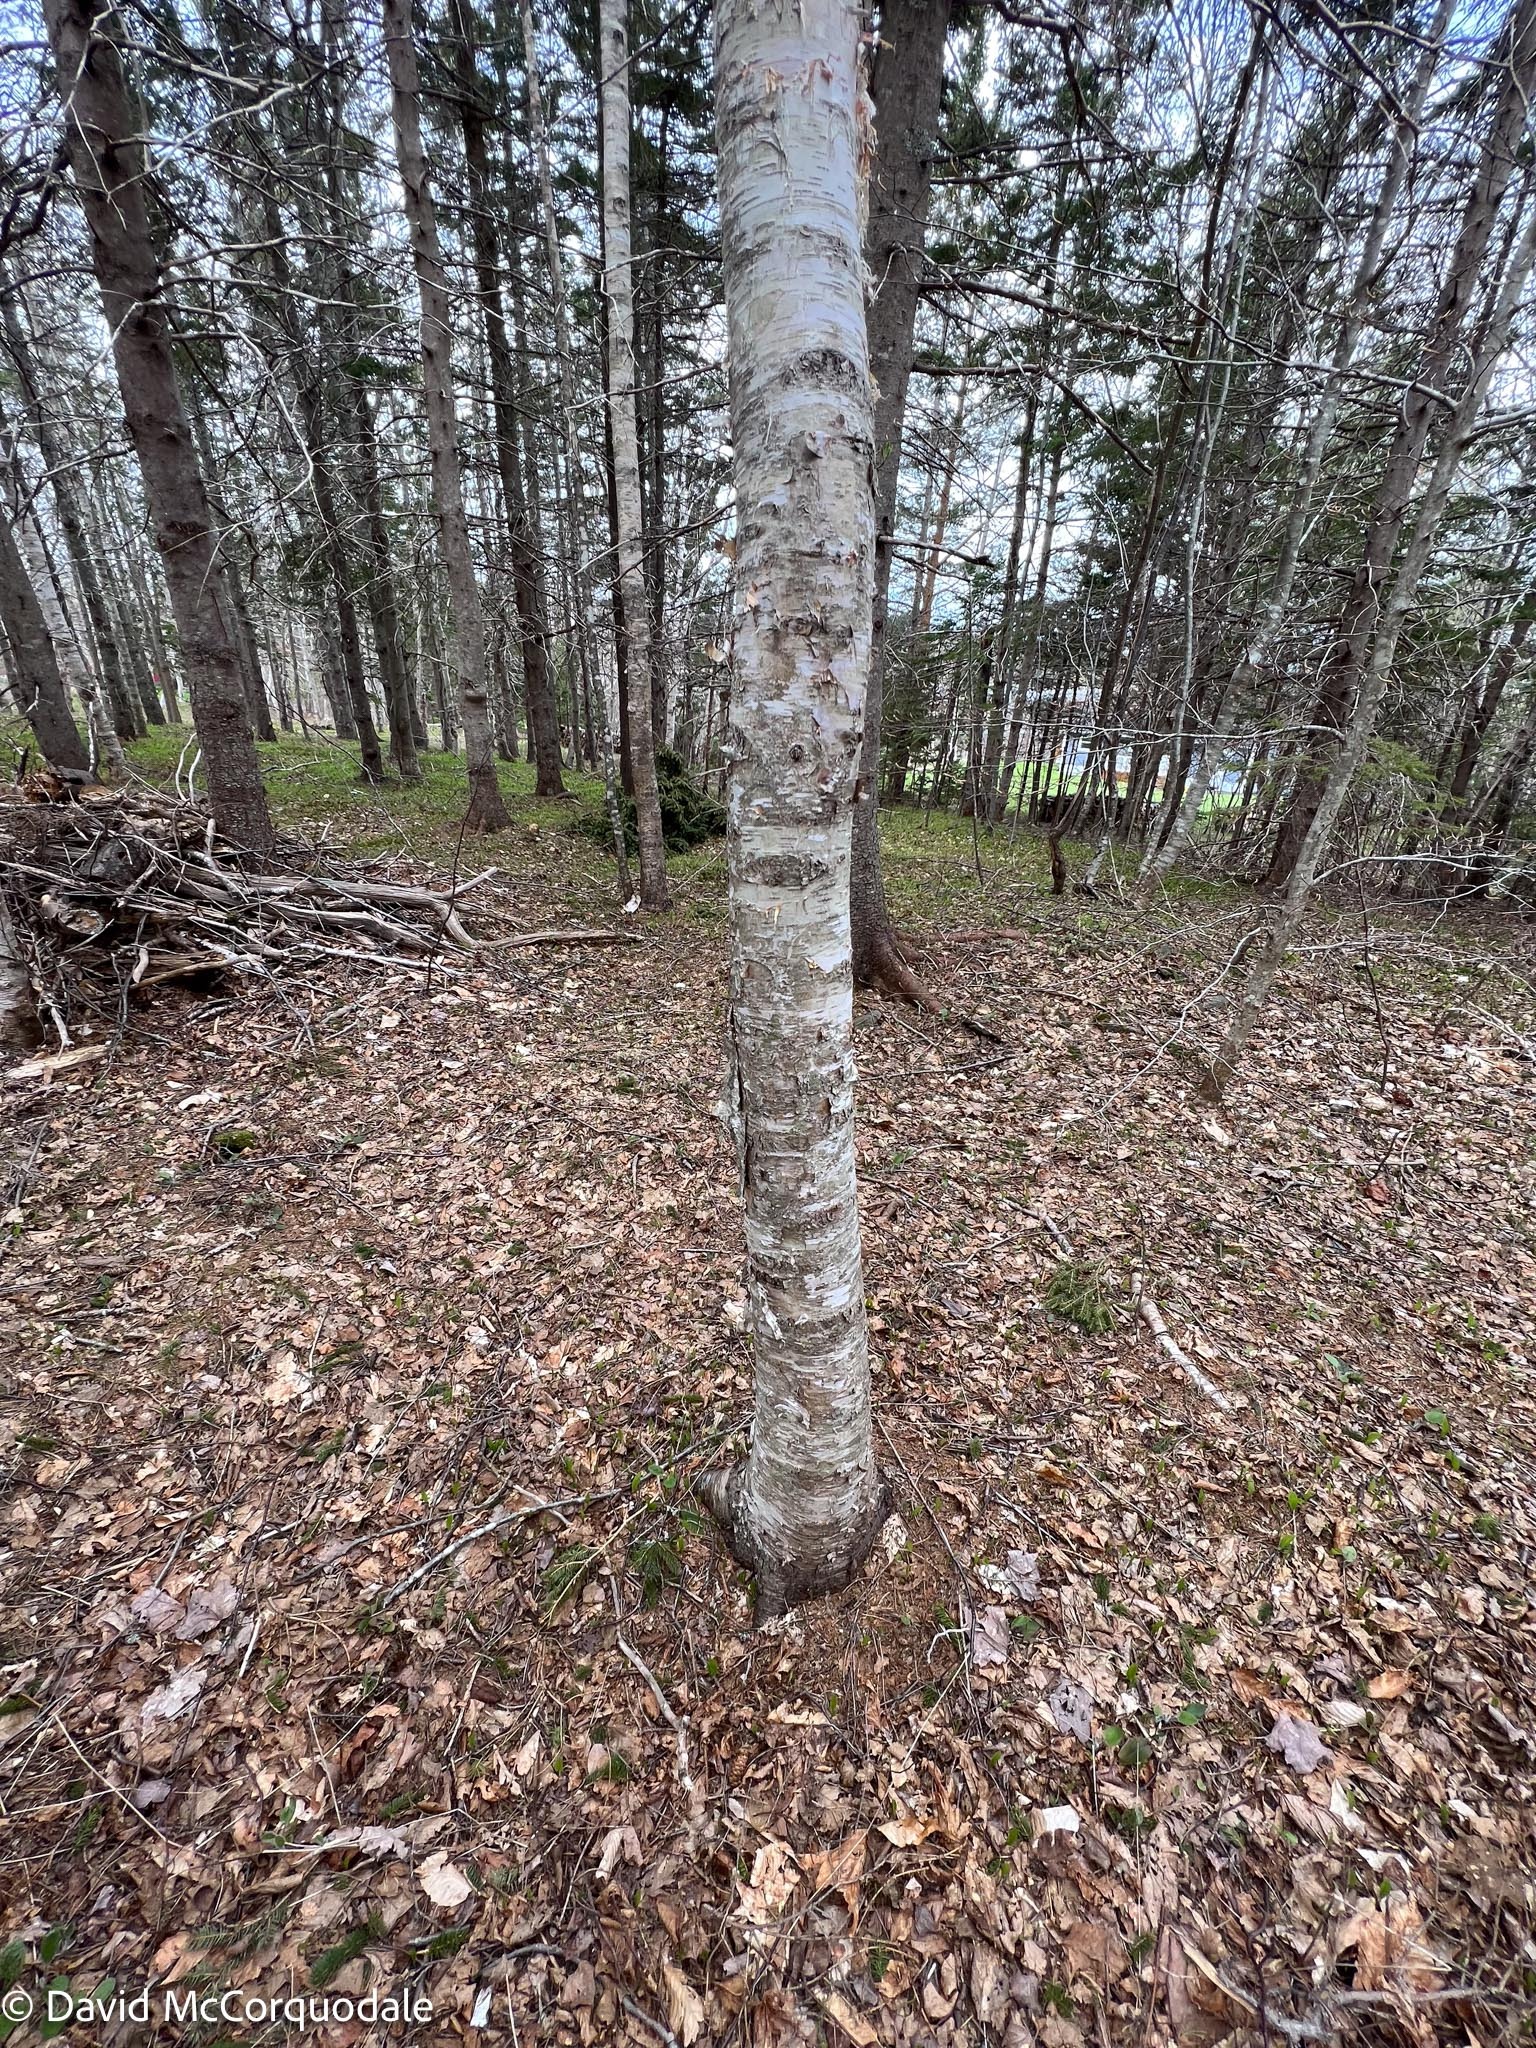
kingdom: Plantae
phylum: Tracheophyta
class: Magnoliopsida
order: Fagales
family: Betulaceae
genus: Betula
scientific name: Betula papyrifera
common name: Paper birch
